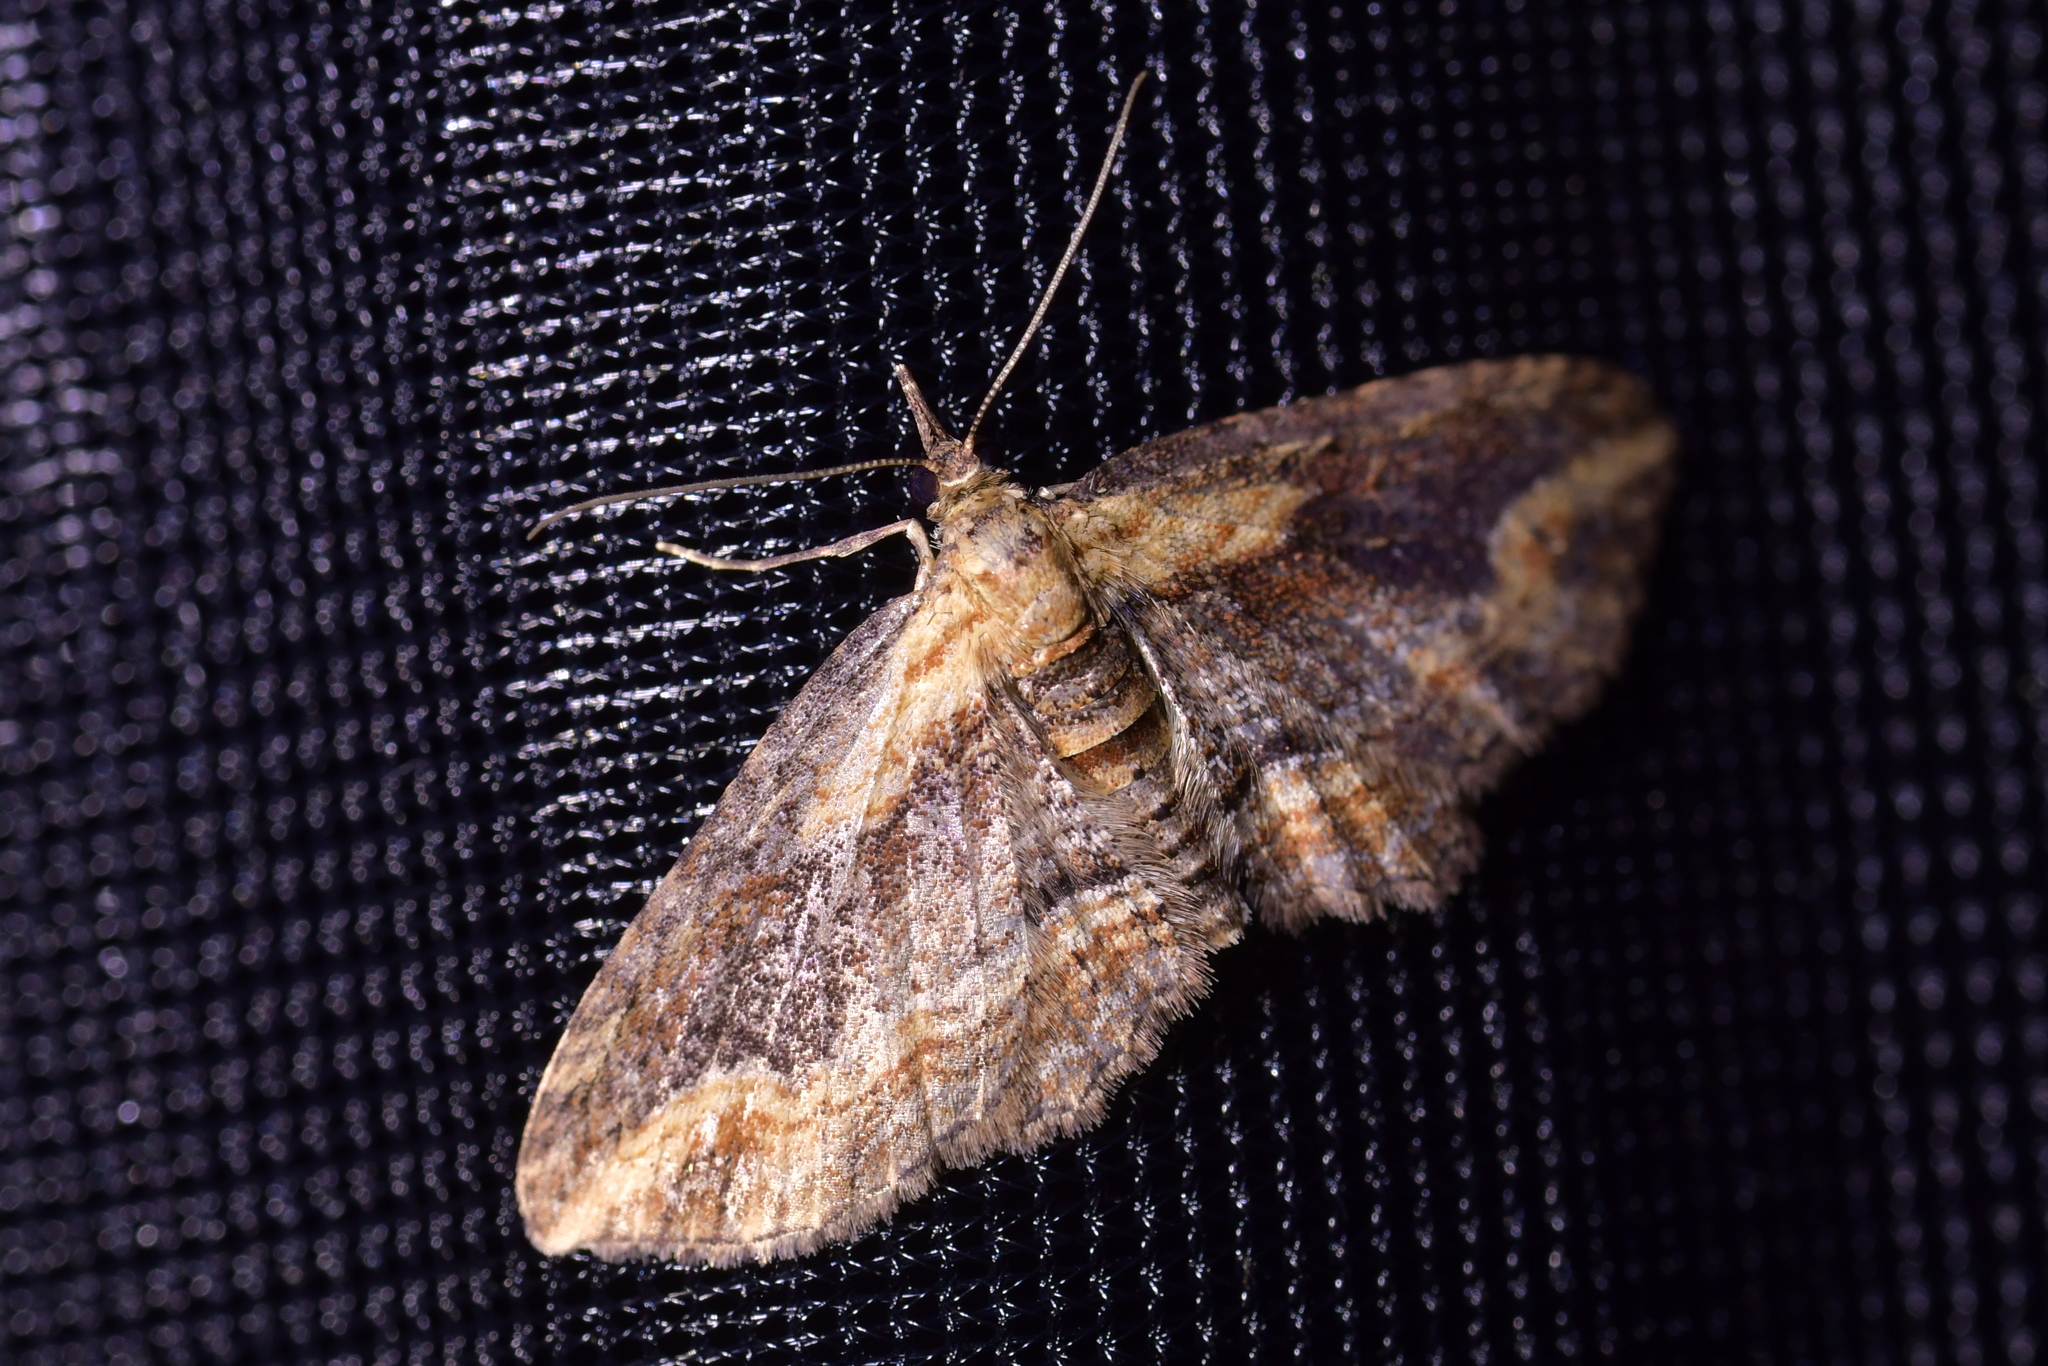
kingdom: Animalia
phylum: Arthropoda
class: Insecta
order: Lepidoptera
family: Geometridae
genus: Chloroclystis
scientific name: Chloroclystis filata
